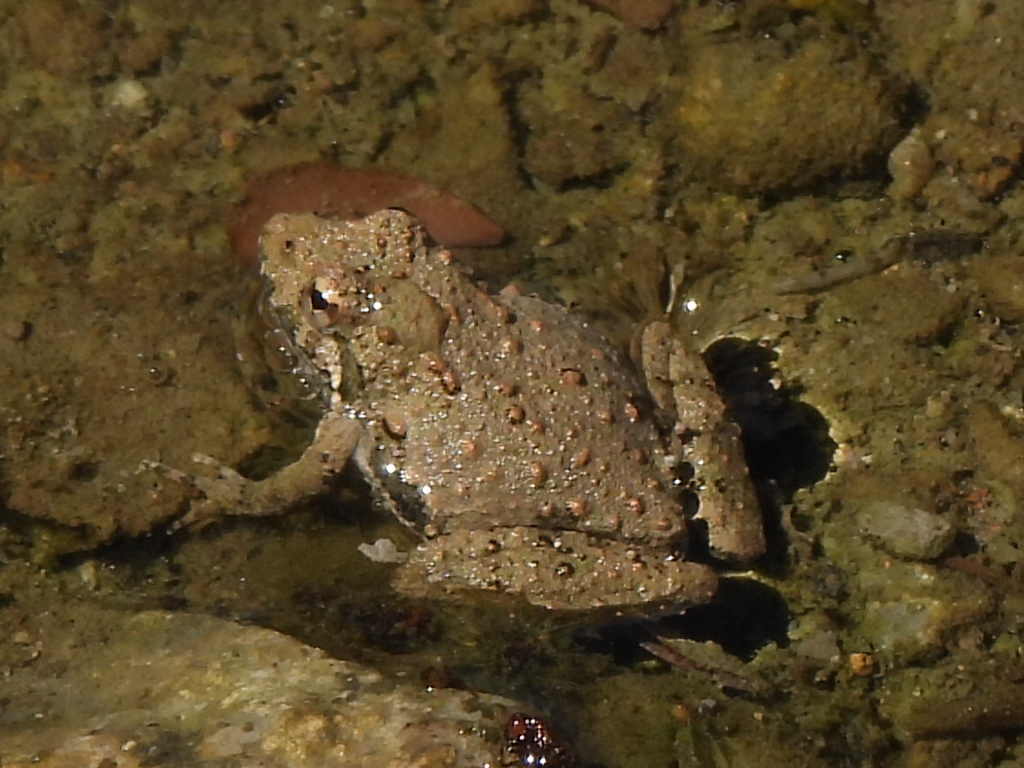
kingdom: Animalia
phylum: Chordata
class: Amphibia
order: Anura
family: Hylidae
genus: Acris
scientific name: Acris blanchardi
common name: Blanchard's cricket frog
